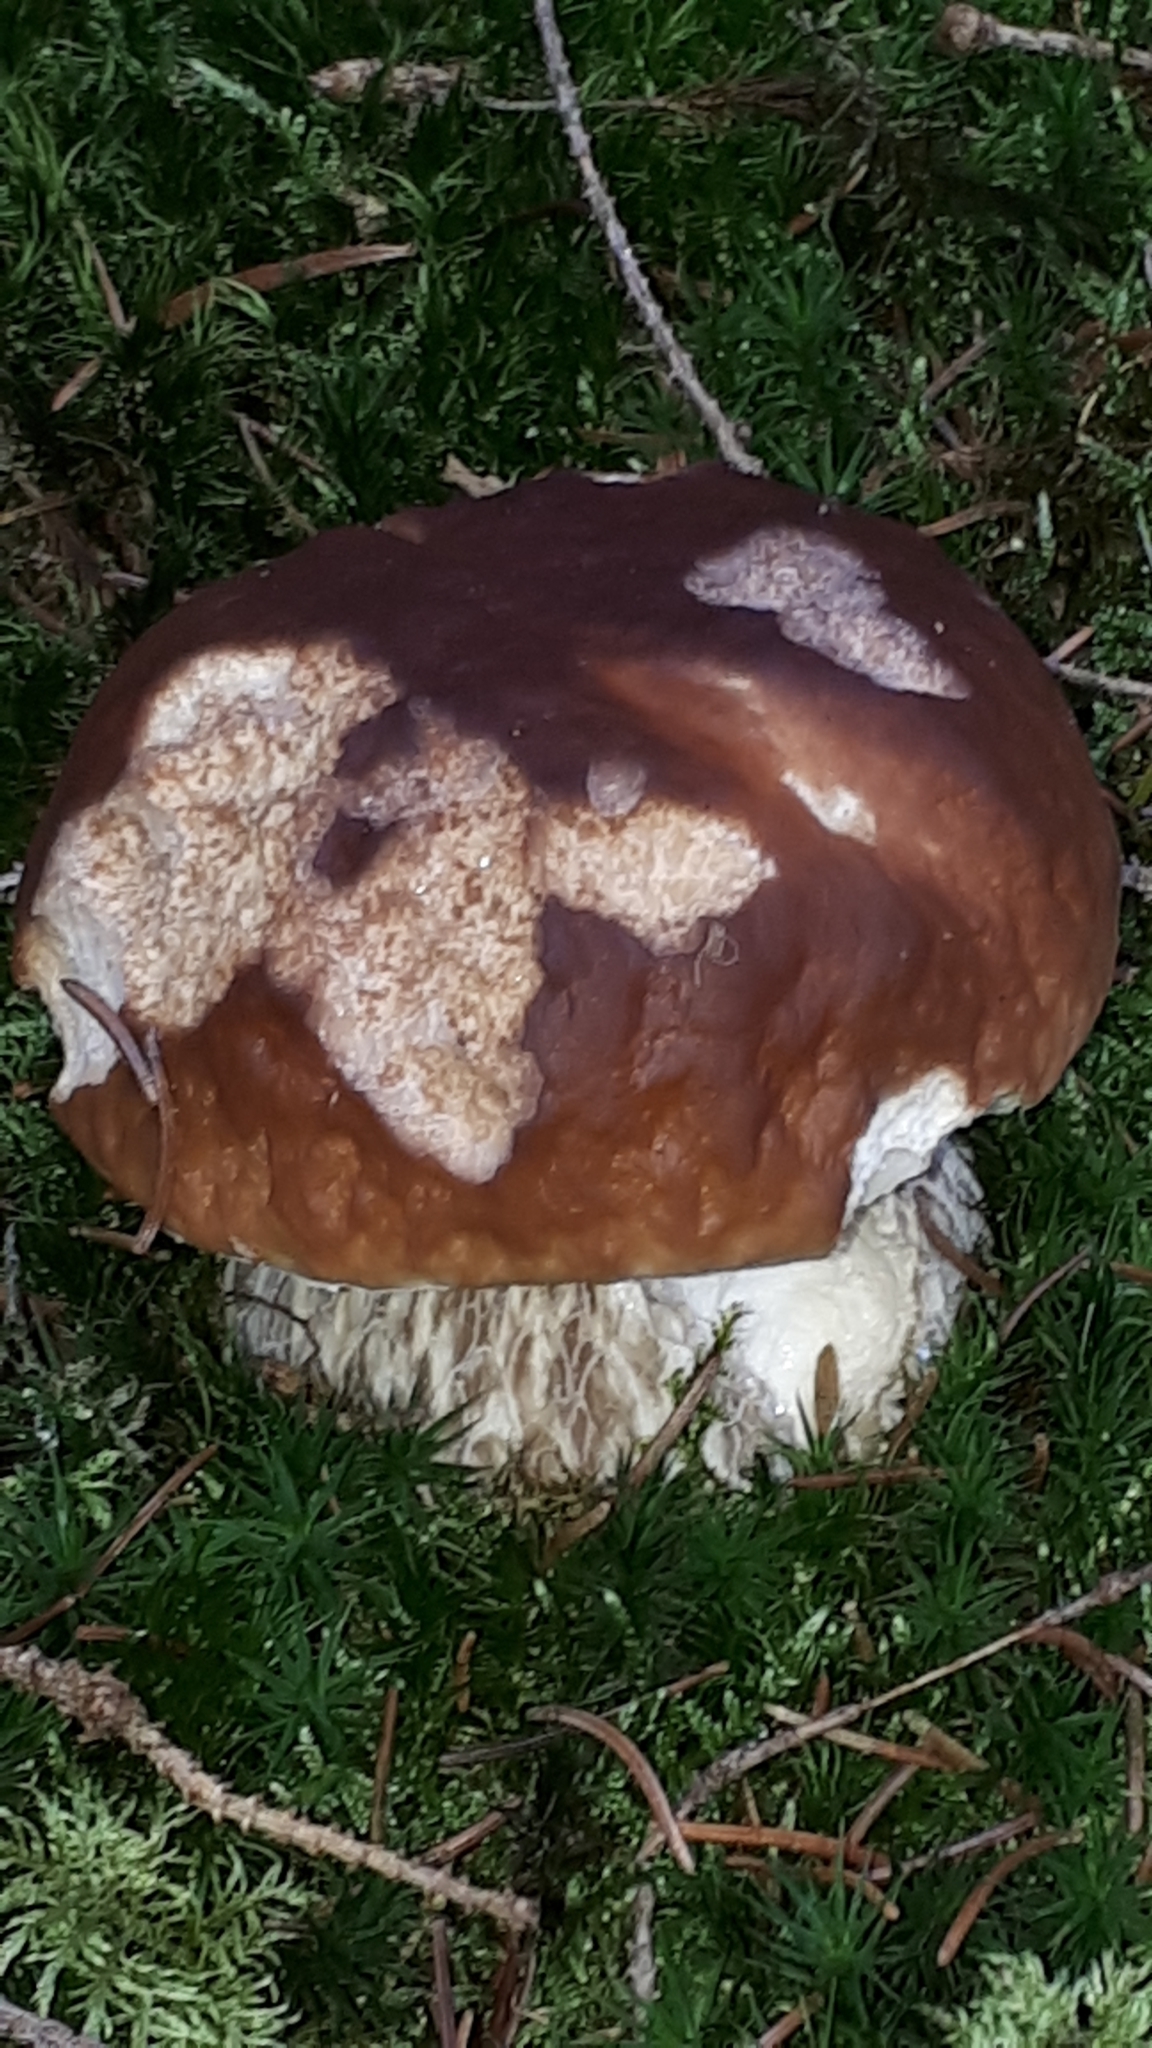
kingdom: Fungi
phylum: Basidiomycota
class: Agaricomycetes
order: Boletales
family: Boletaceae
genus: Boletus
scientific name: Boletus edulis
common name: Cep
